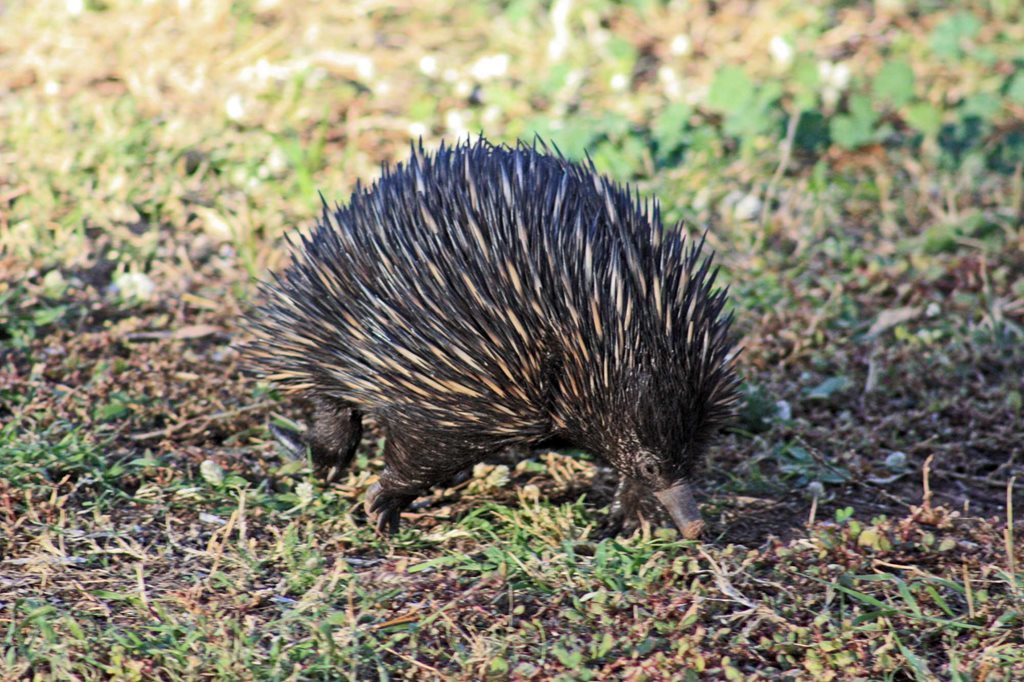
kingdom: Animalia
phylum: Chordata
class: Mammalia
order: Monotremata
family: Tachyglossidae
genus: Tachyglossus
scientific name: Tachyglossus aculeatus
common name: Short-beaked echidna
